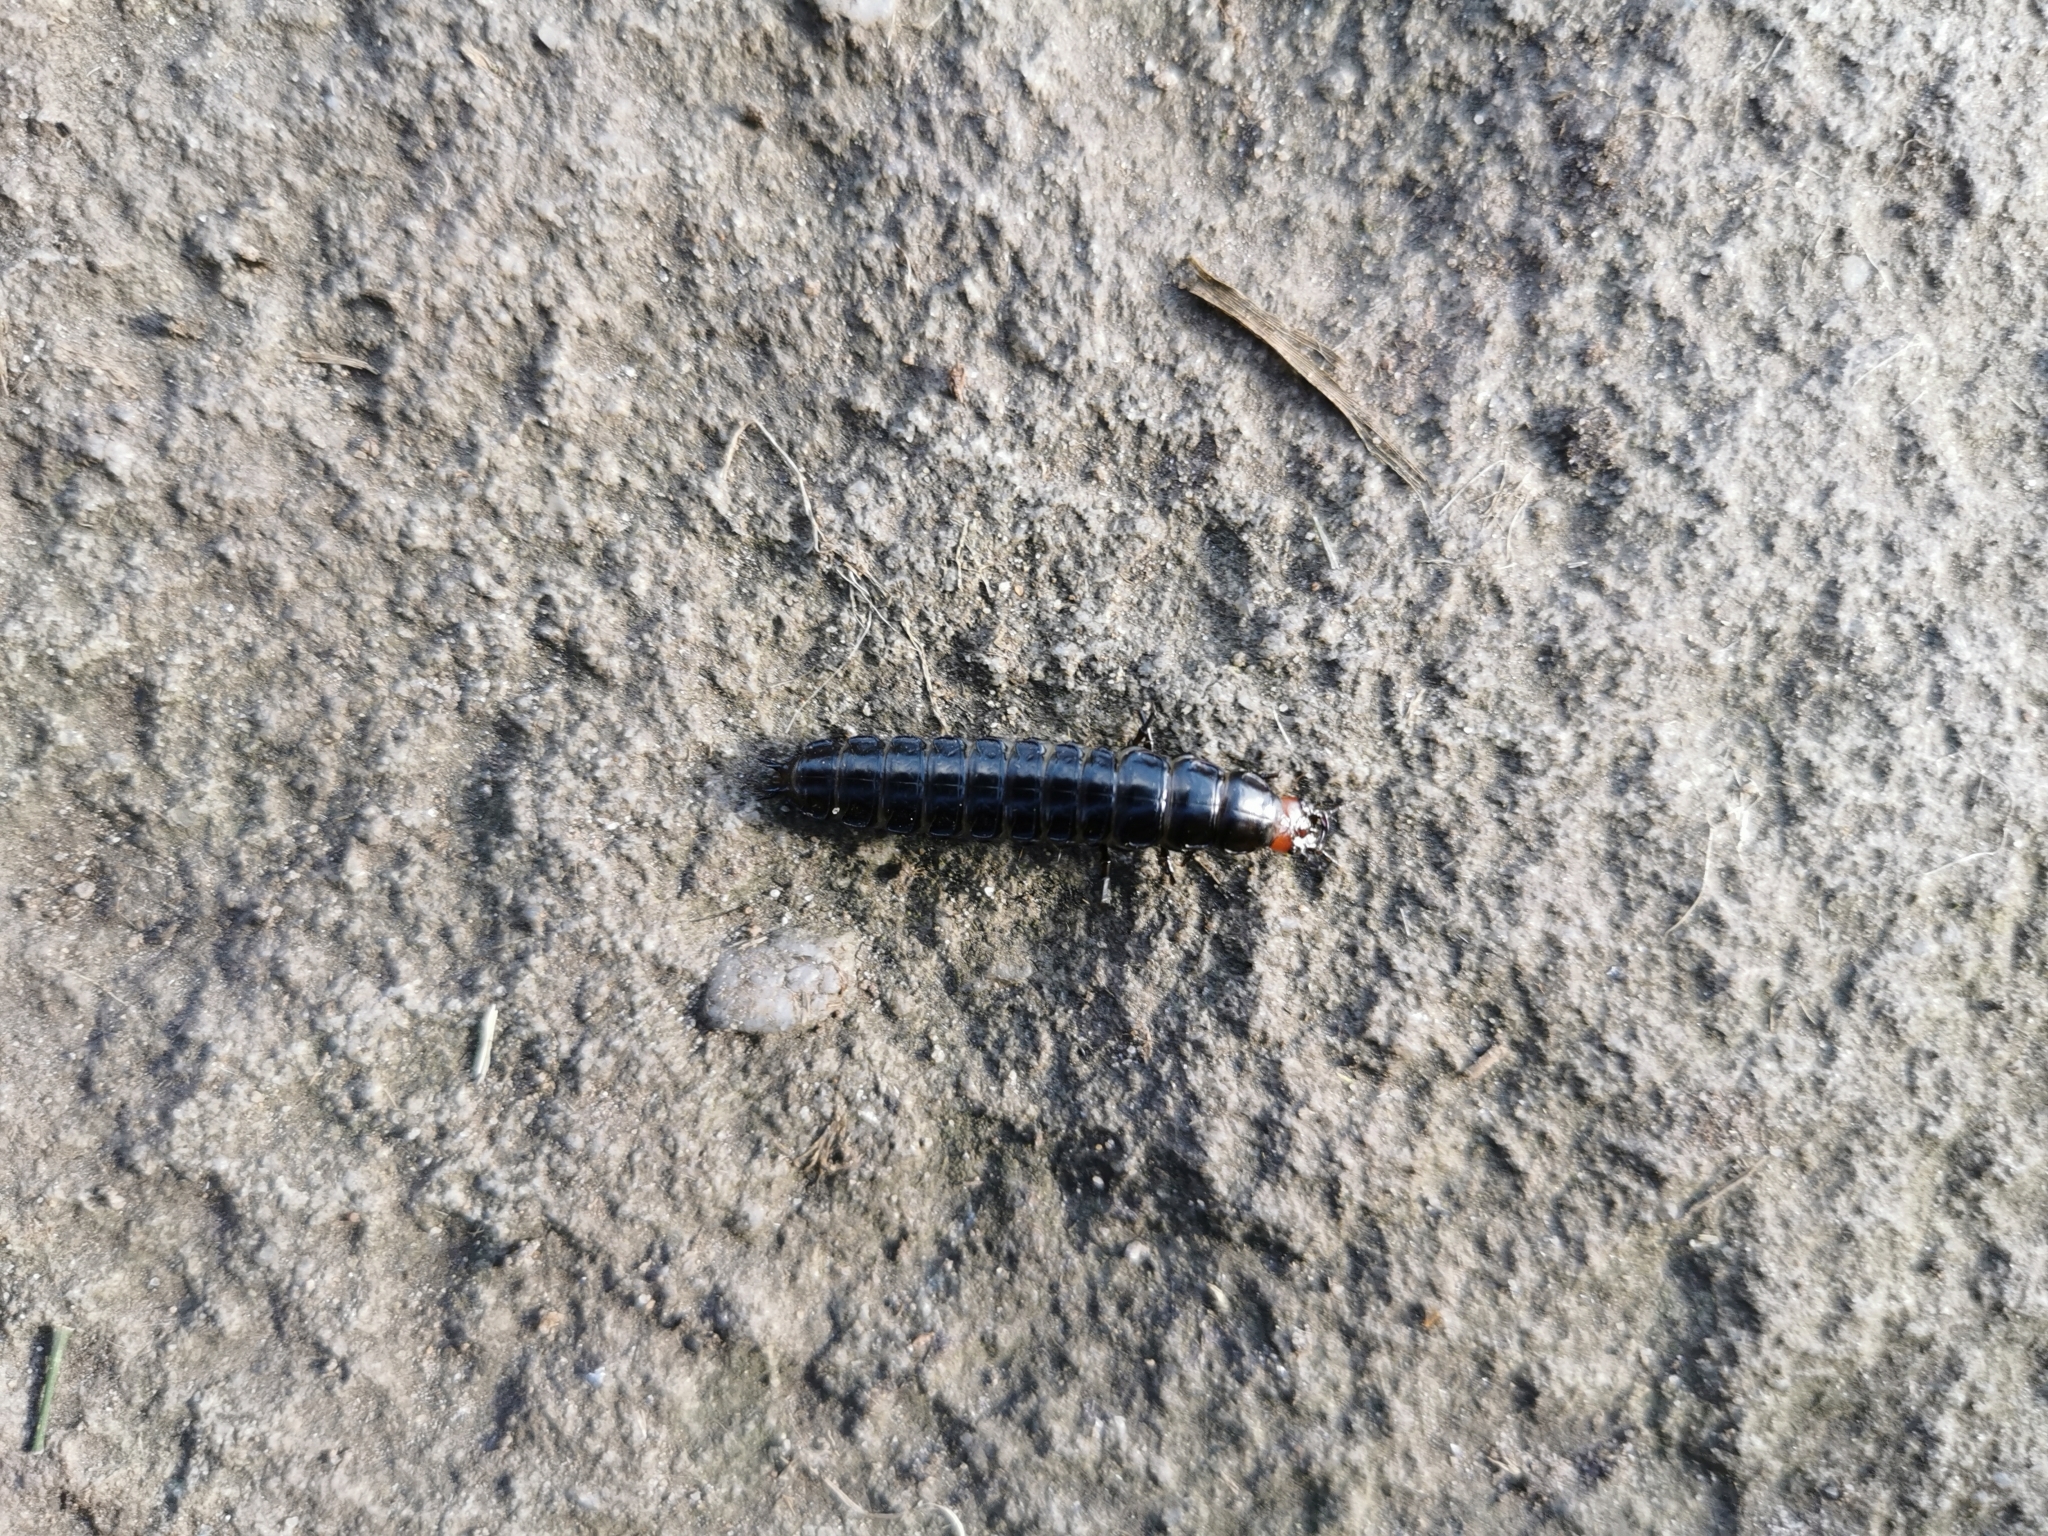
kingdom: Animalia
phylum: Arthropoda
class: Insecta
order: Coleoptera
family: Carabidae
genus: Carabus
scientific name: Carabus violaceus
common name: Violet ground beetle
